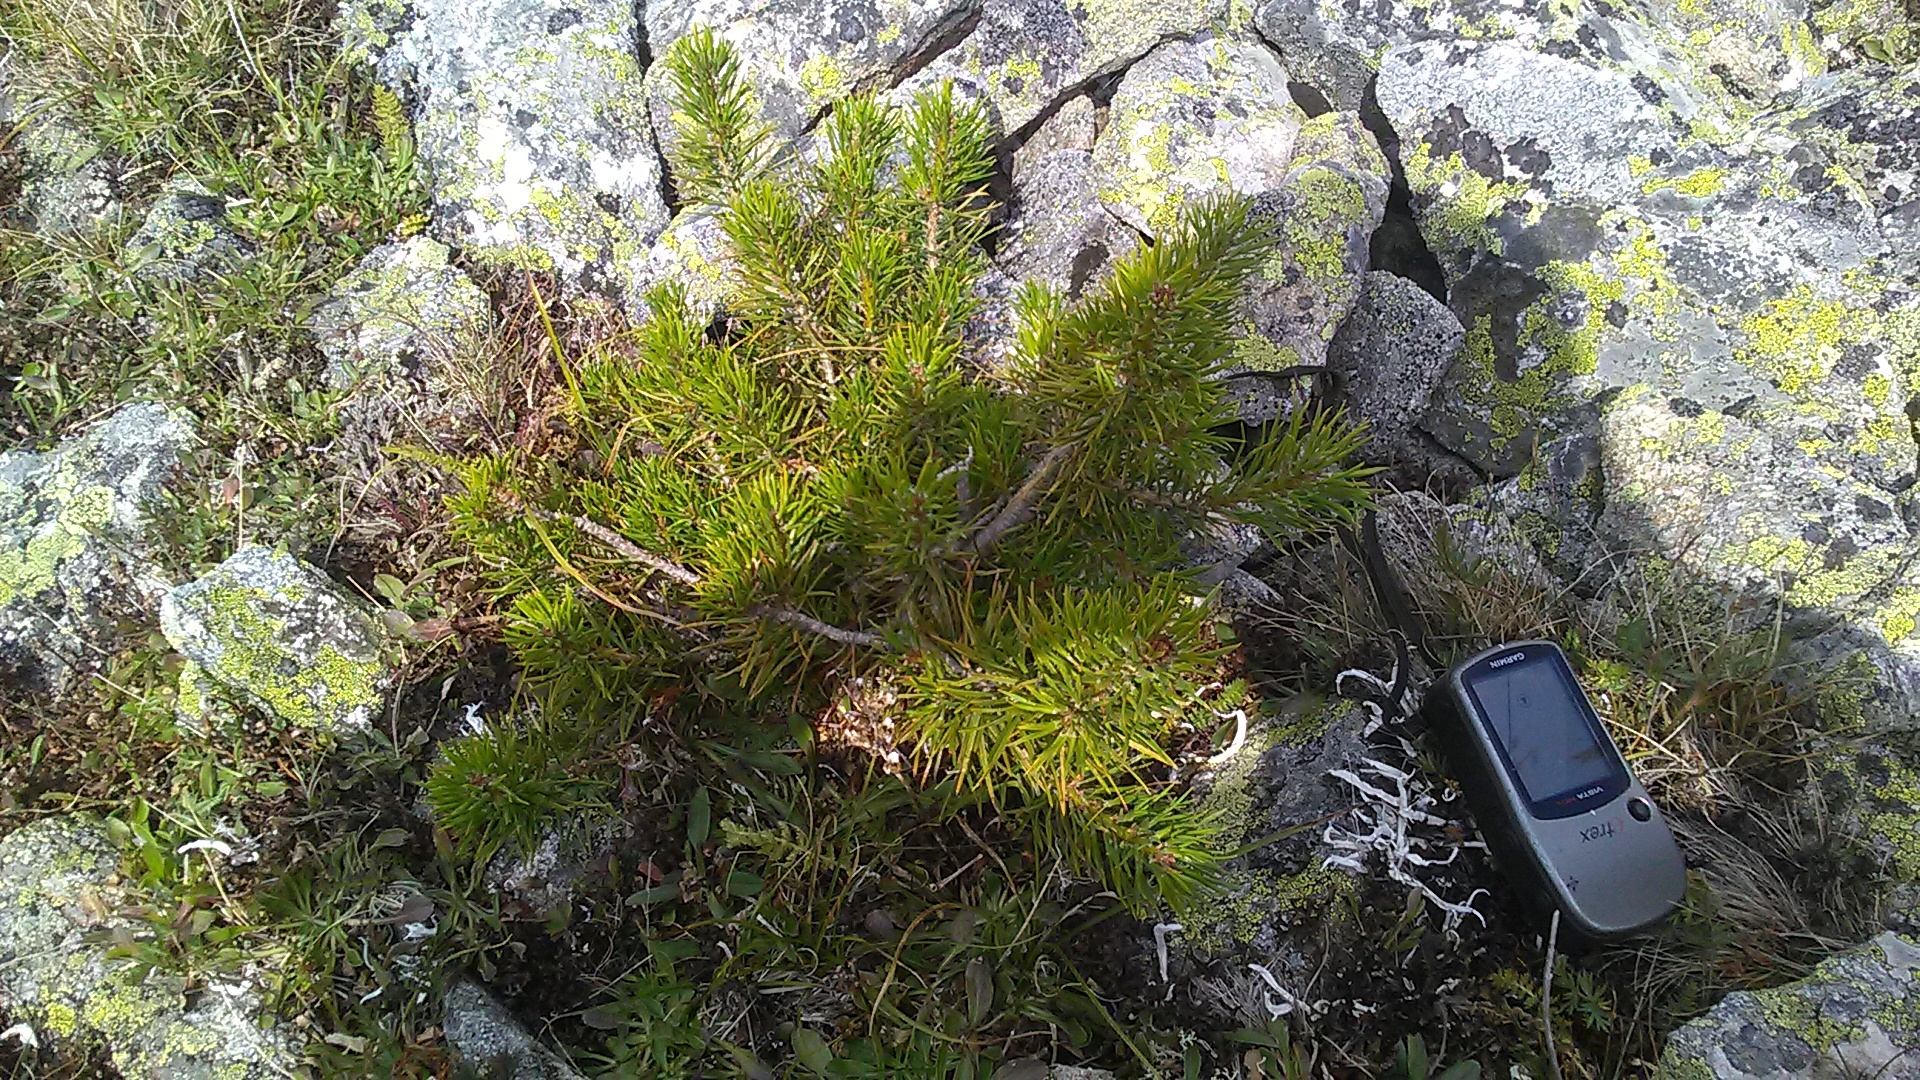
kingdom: Plantae
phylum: Tracheophyta
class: Pinopsida
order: Pinales
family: Pinaceae
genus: Pinus
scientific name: Pinus sylvestris
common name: Scots pine
